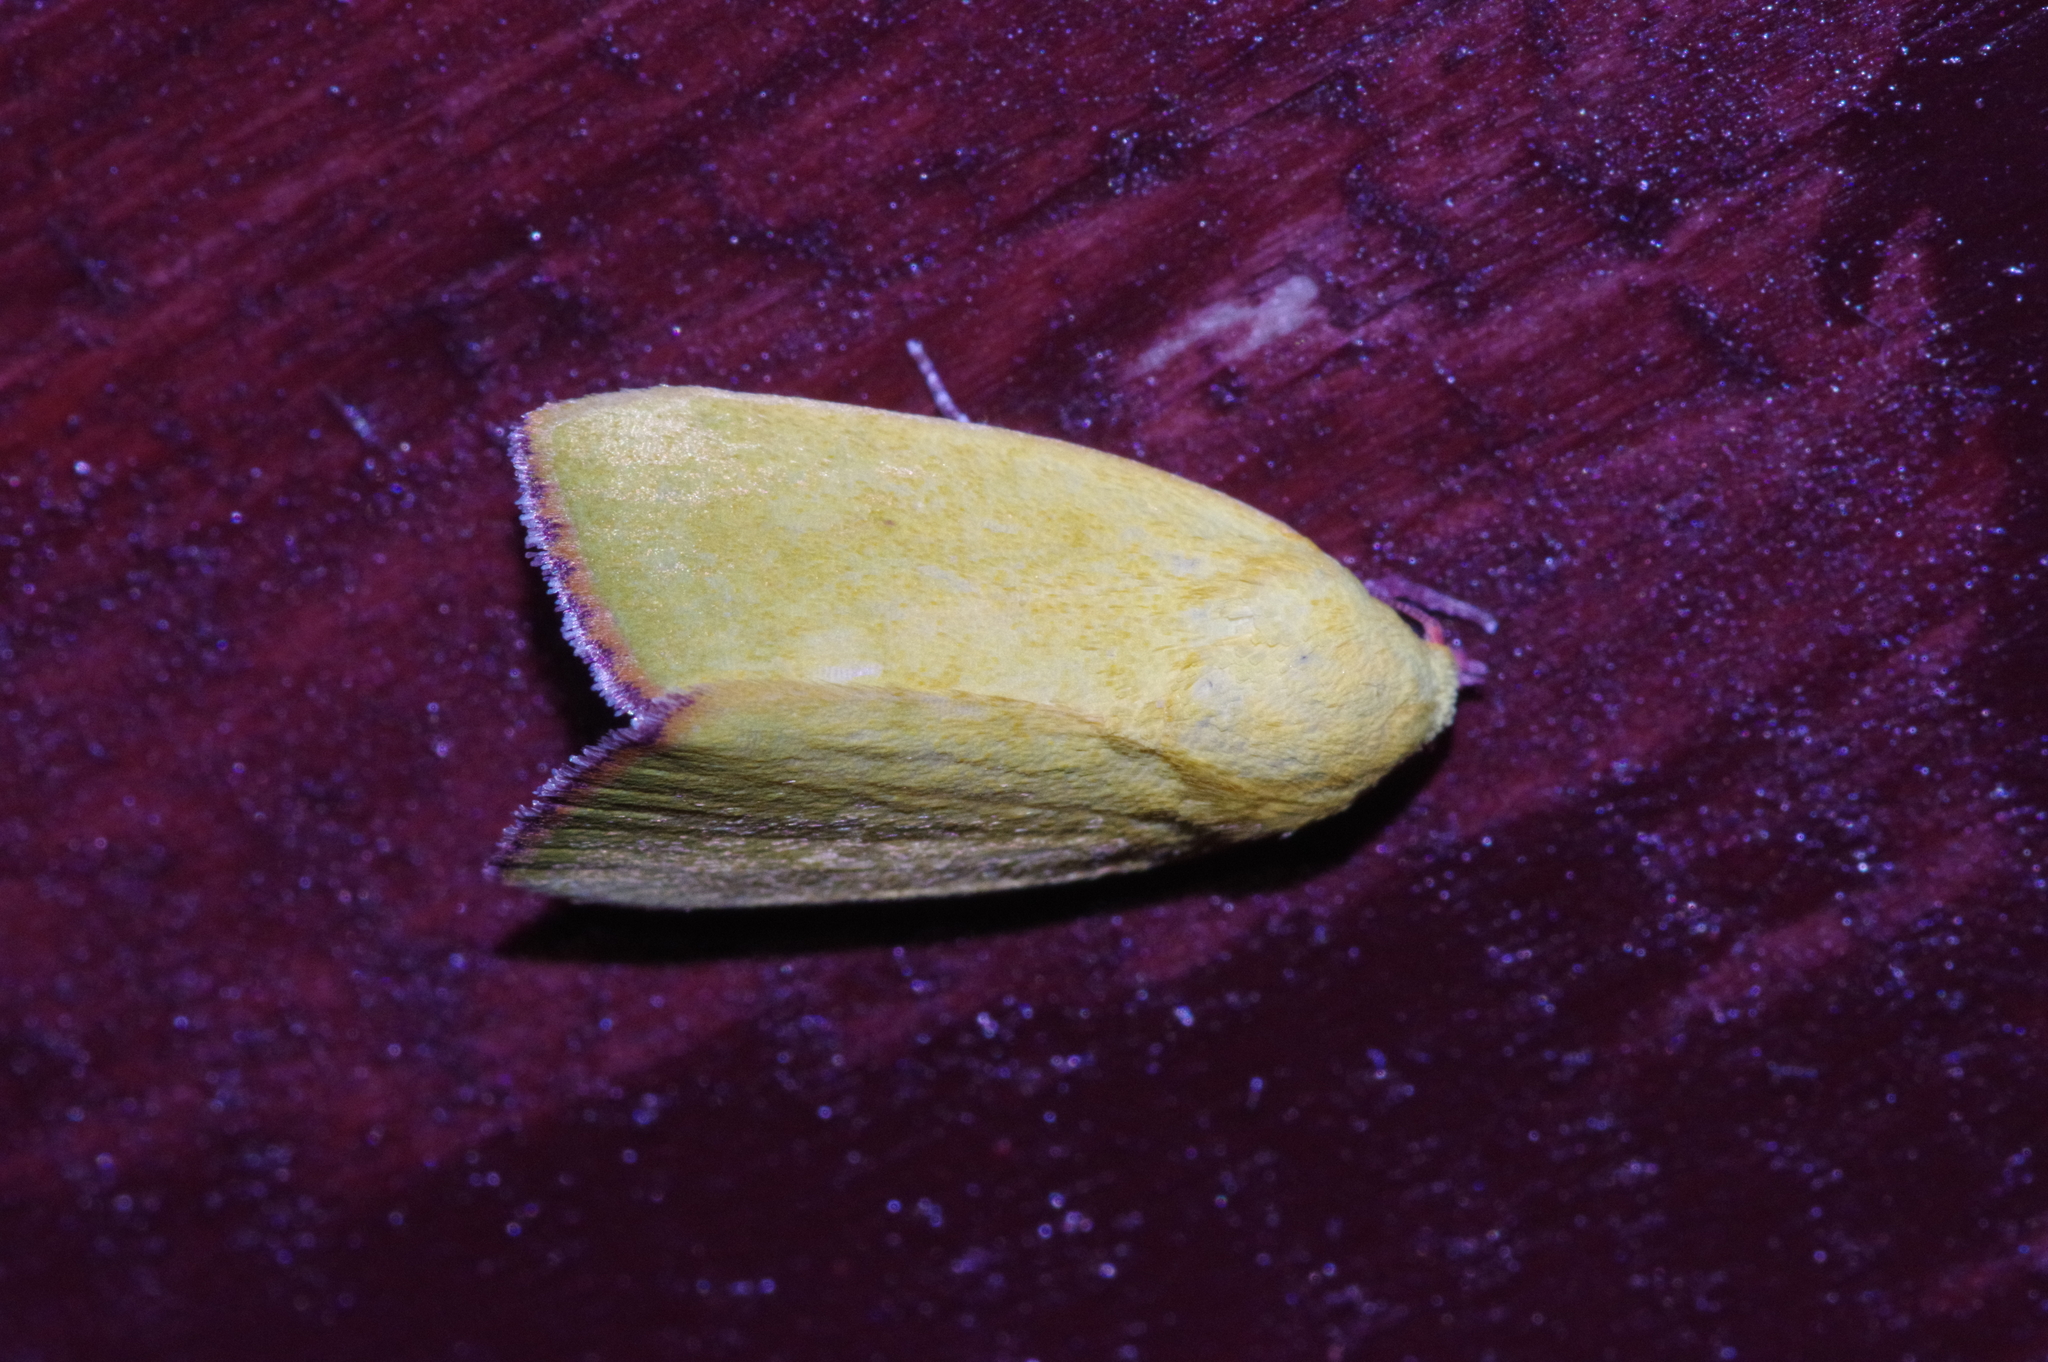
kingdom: Animalia
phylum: Arthropoda
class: Insecta
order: Lepidoptera
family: Nolidae
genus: Earias
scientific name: Earias cupreoviridis
